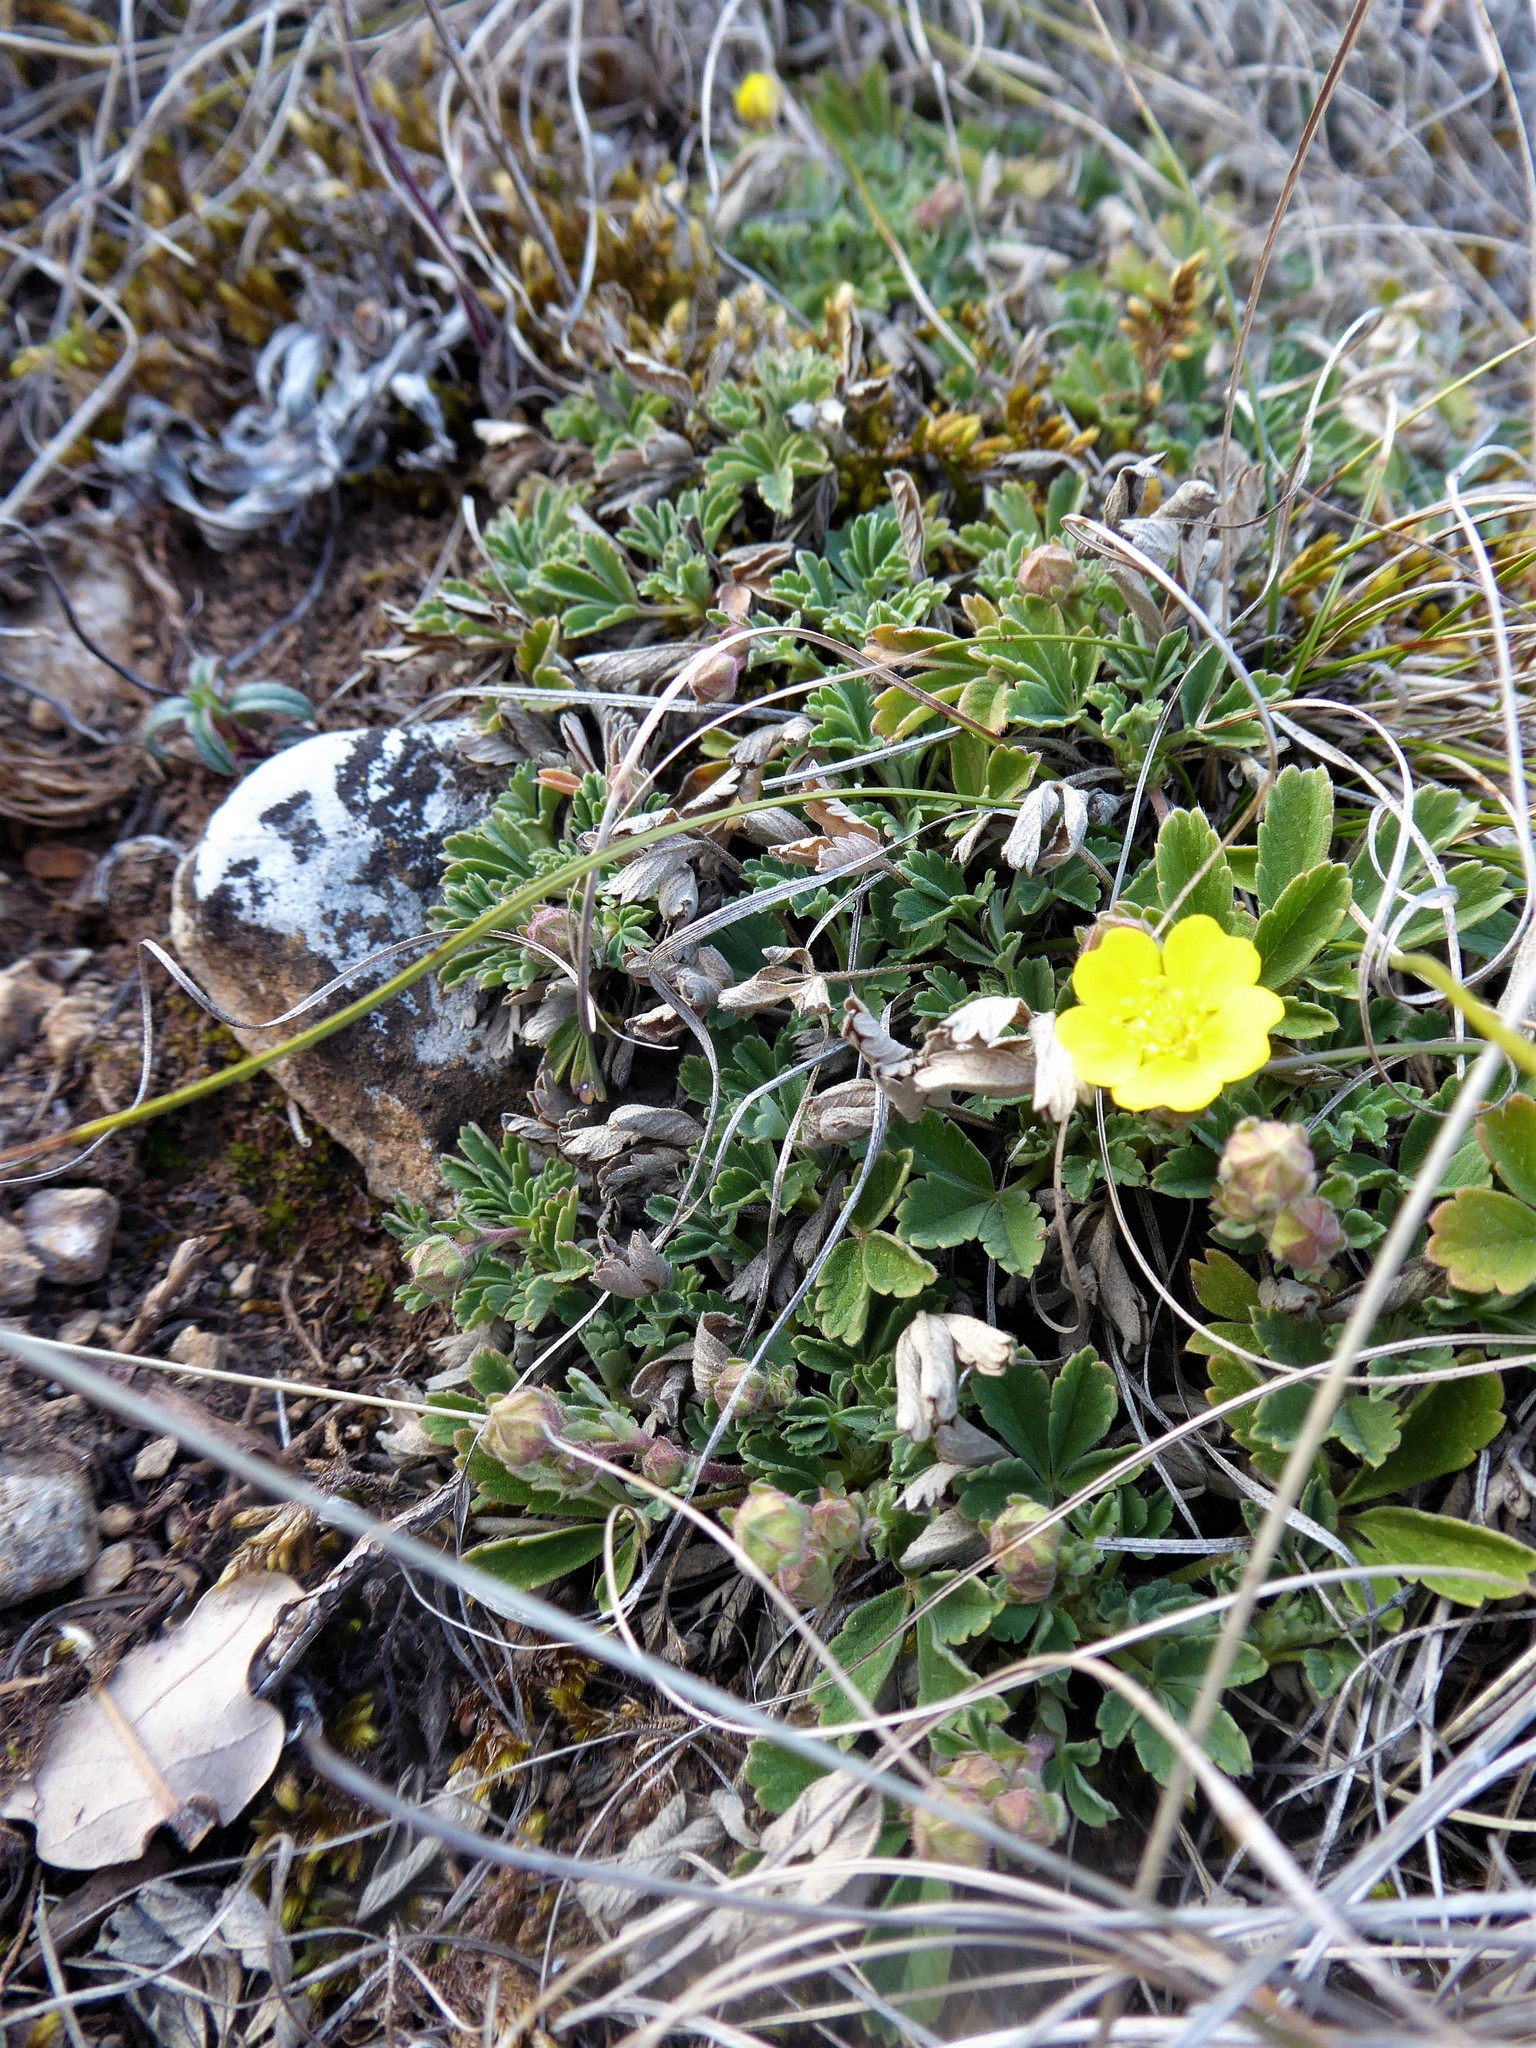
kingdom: Plantae
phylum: Tracheophyta
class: Magnoliopsida
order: Rosales
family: Rosaceae
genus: Potentilla
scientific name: Potentilla incana
